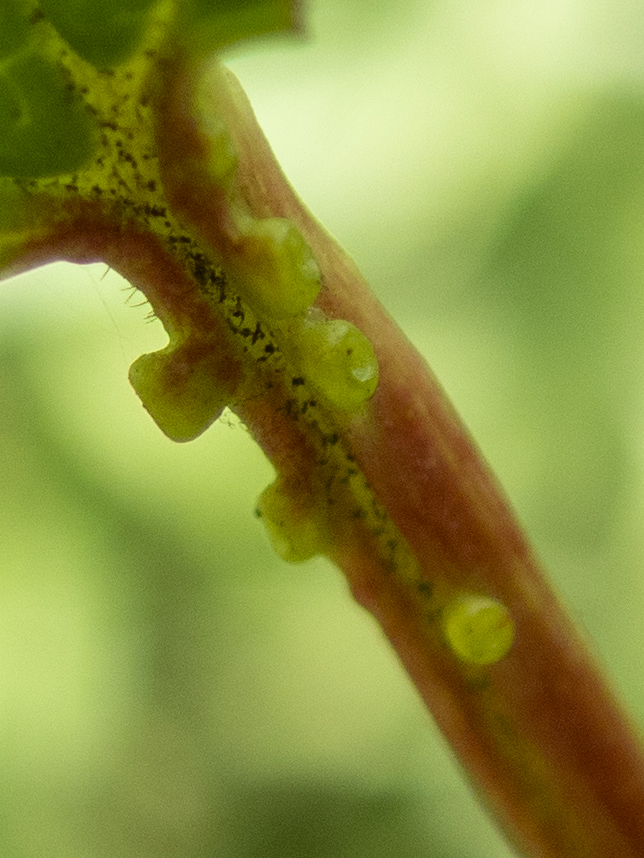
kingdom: Plantae
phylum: Tracheophyta
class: Magnoliopsida
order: Dipsacales
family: Viburnaceae
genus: Viburnum
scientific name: Viburnum opulus
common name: Guelder-rose
